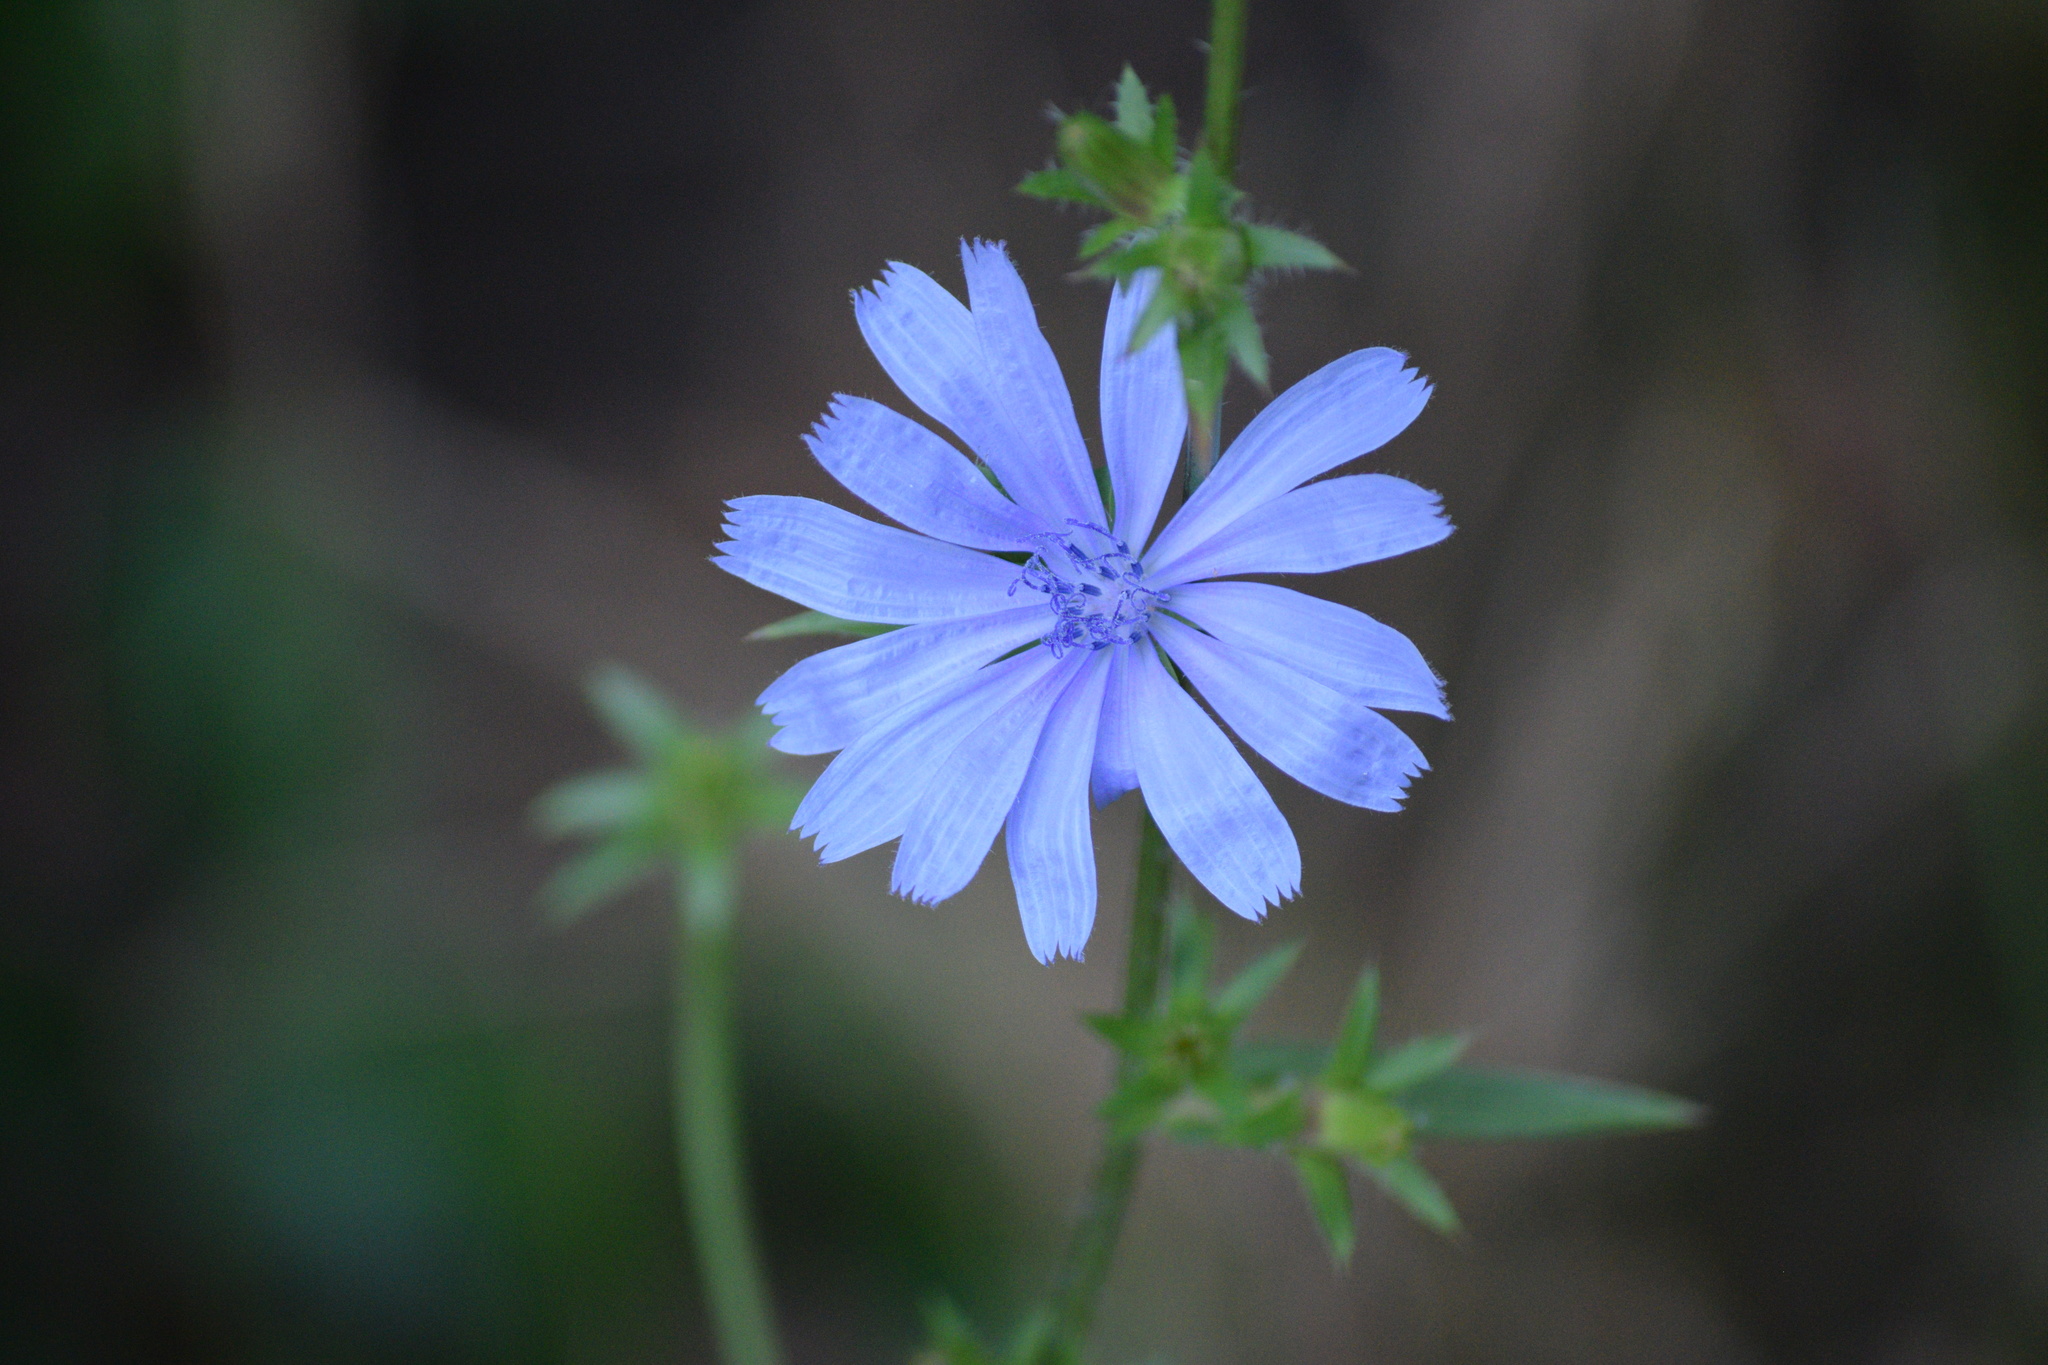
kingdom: Plantae
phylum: Tracheophyta
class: Magnoliopsida
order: Asterales
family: Asteraceae
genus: Cichorium
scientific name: Cichorium intybus
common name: Chicory
